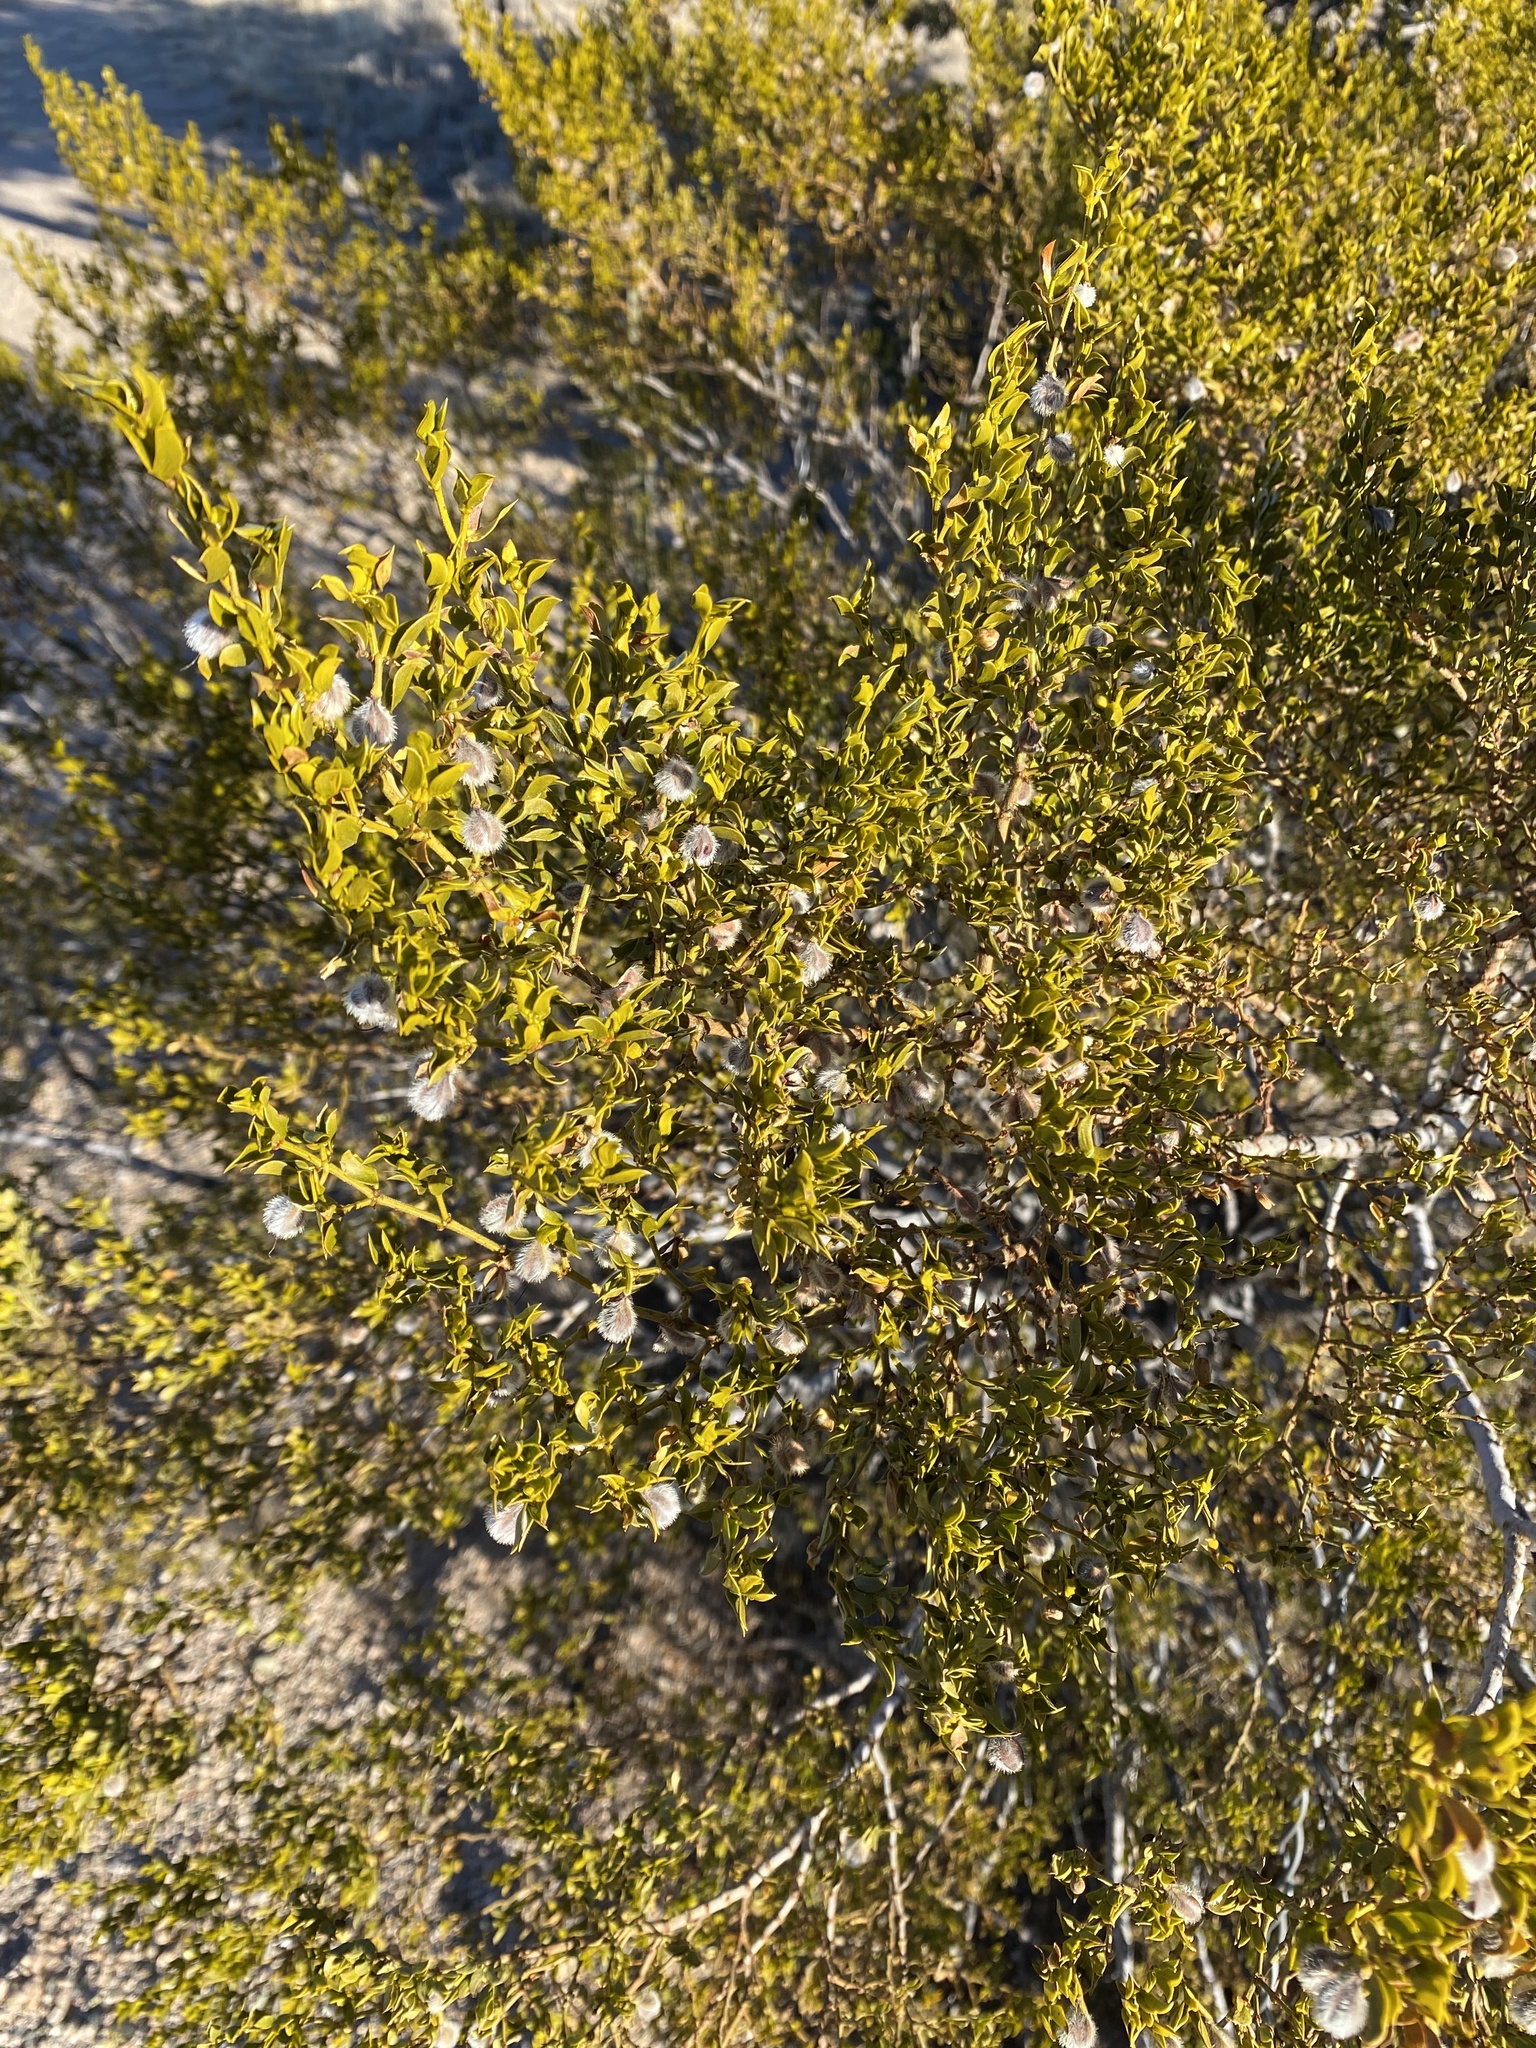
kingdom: Plantae
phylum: Tracheophyta
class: Magnoliopsida
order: Zygophyllales
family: Zygophyllaceae
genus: Larrea
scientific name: Larrea tridentata
